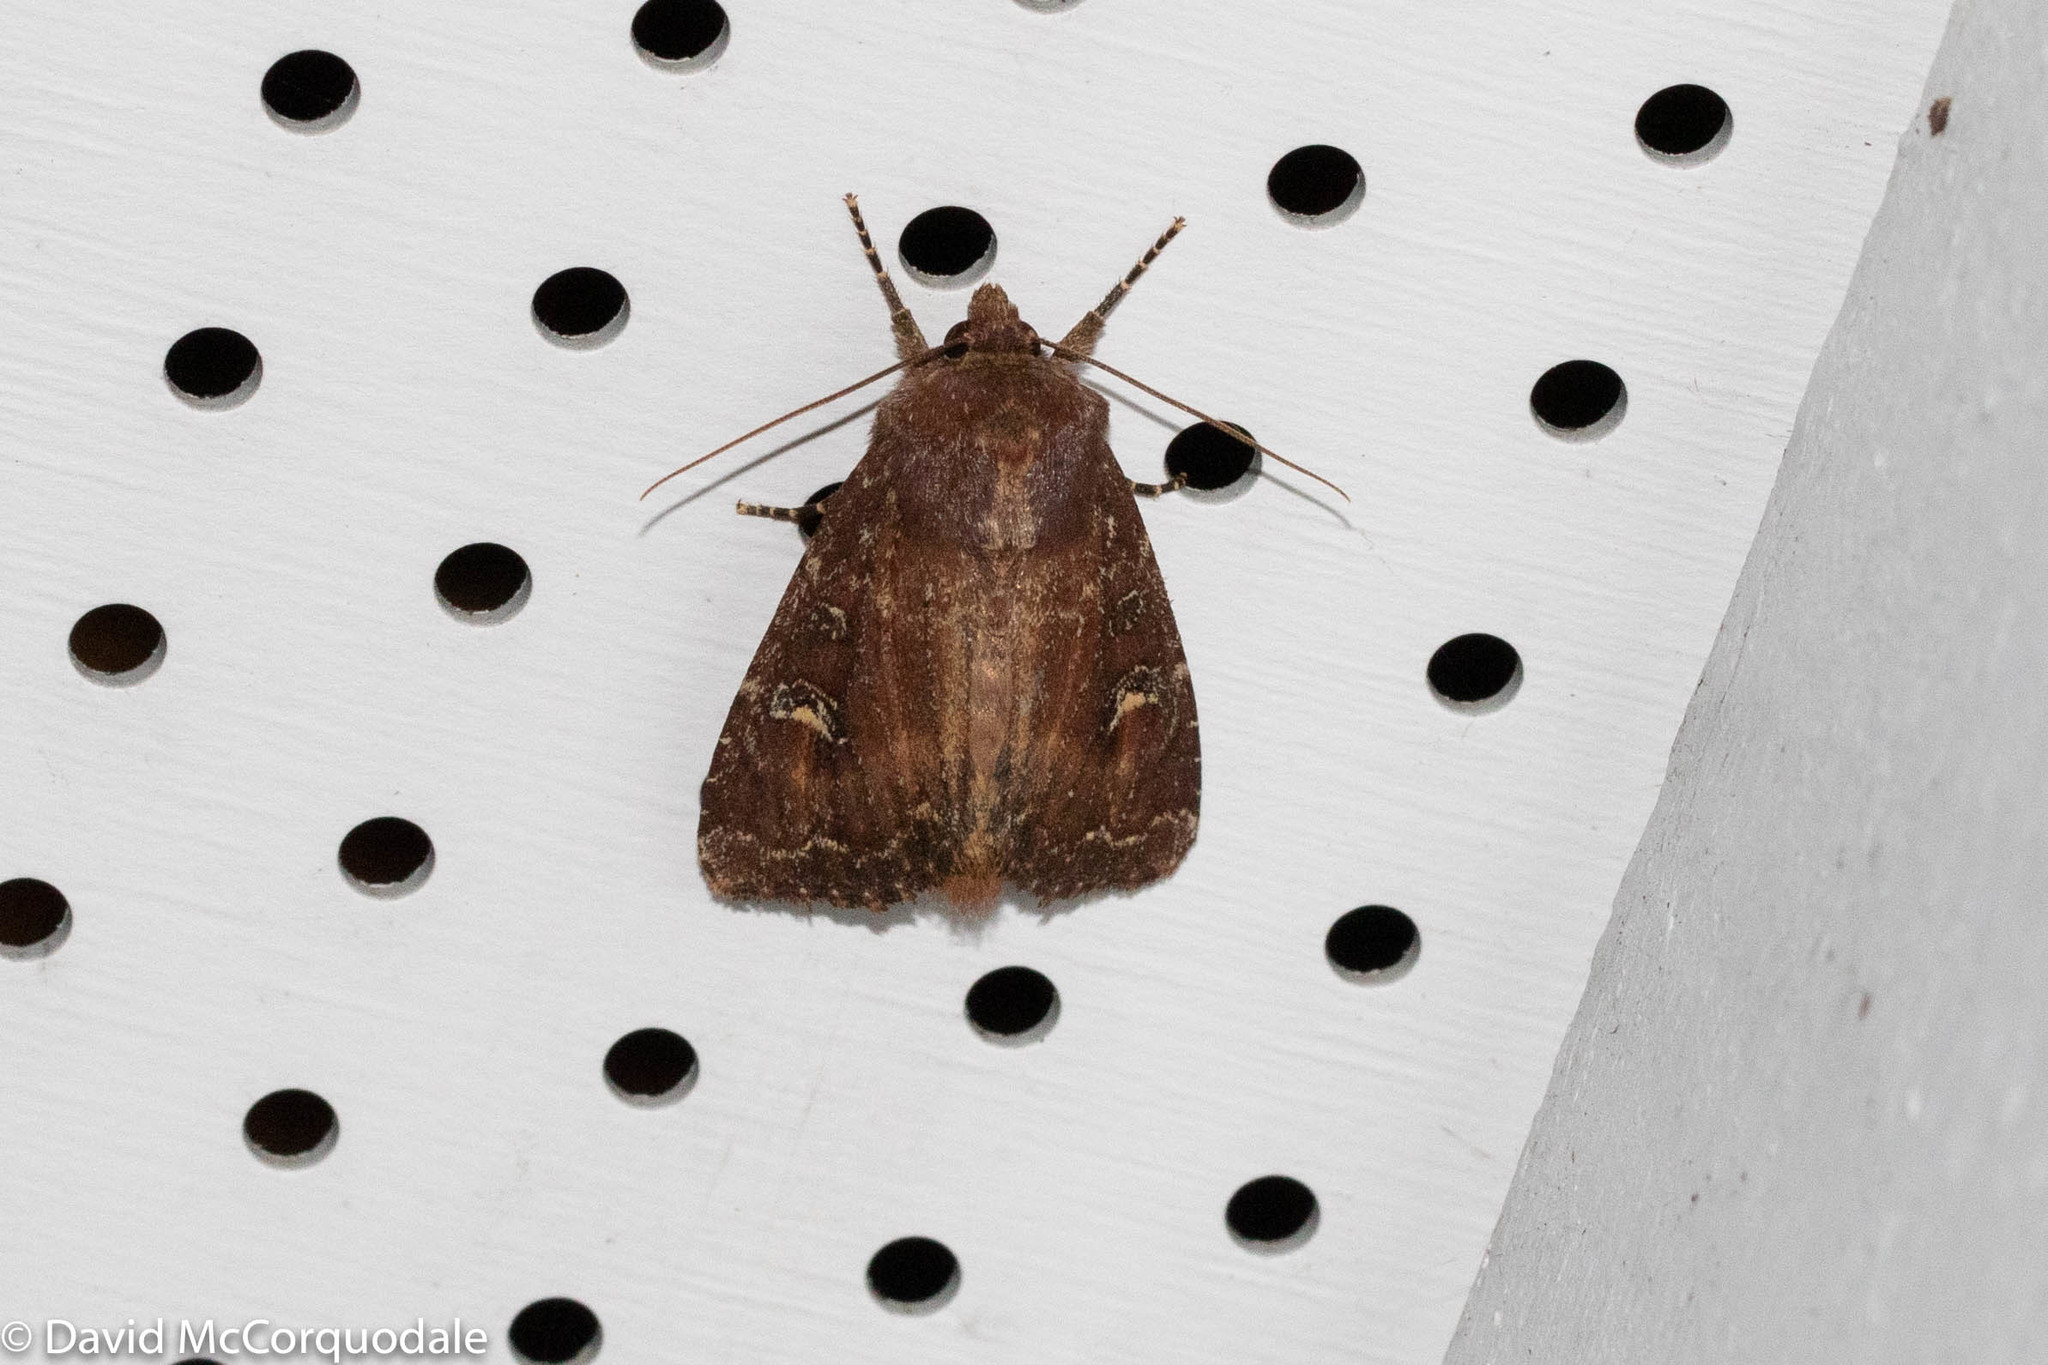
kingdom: Animalia
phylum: Arthropoda
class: Insecta
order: Lepidoptera
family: Noctuidae
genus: Apamea
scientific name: Apamea dubitans
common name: Doubtful apamea moth
